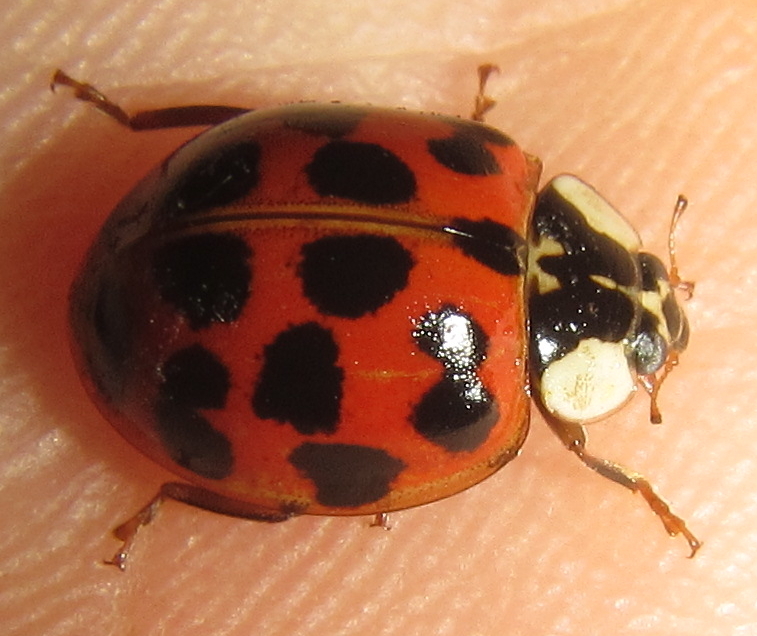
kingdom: Animalia
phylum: Arthropoda
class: Insecta
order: Coleoptera
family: Coccinellidae
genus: Harmonia
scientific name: Harmonia axyridis
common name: Harlequin ladybird
